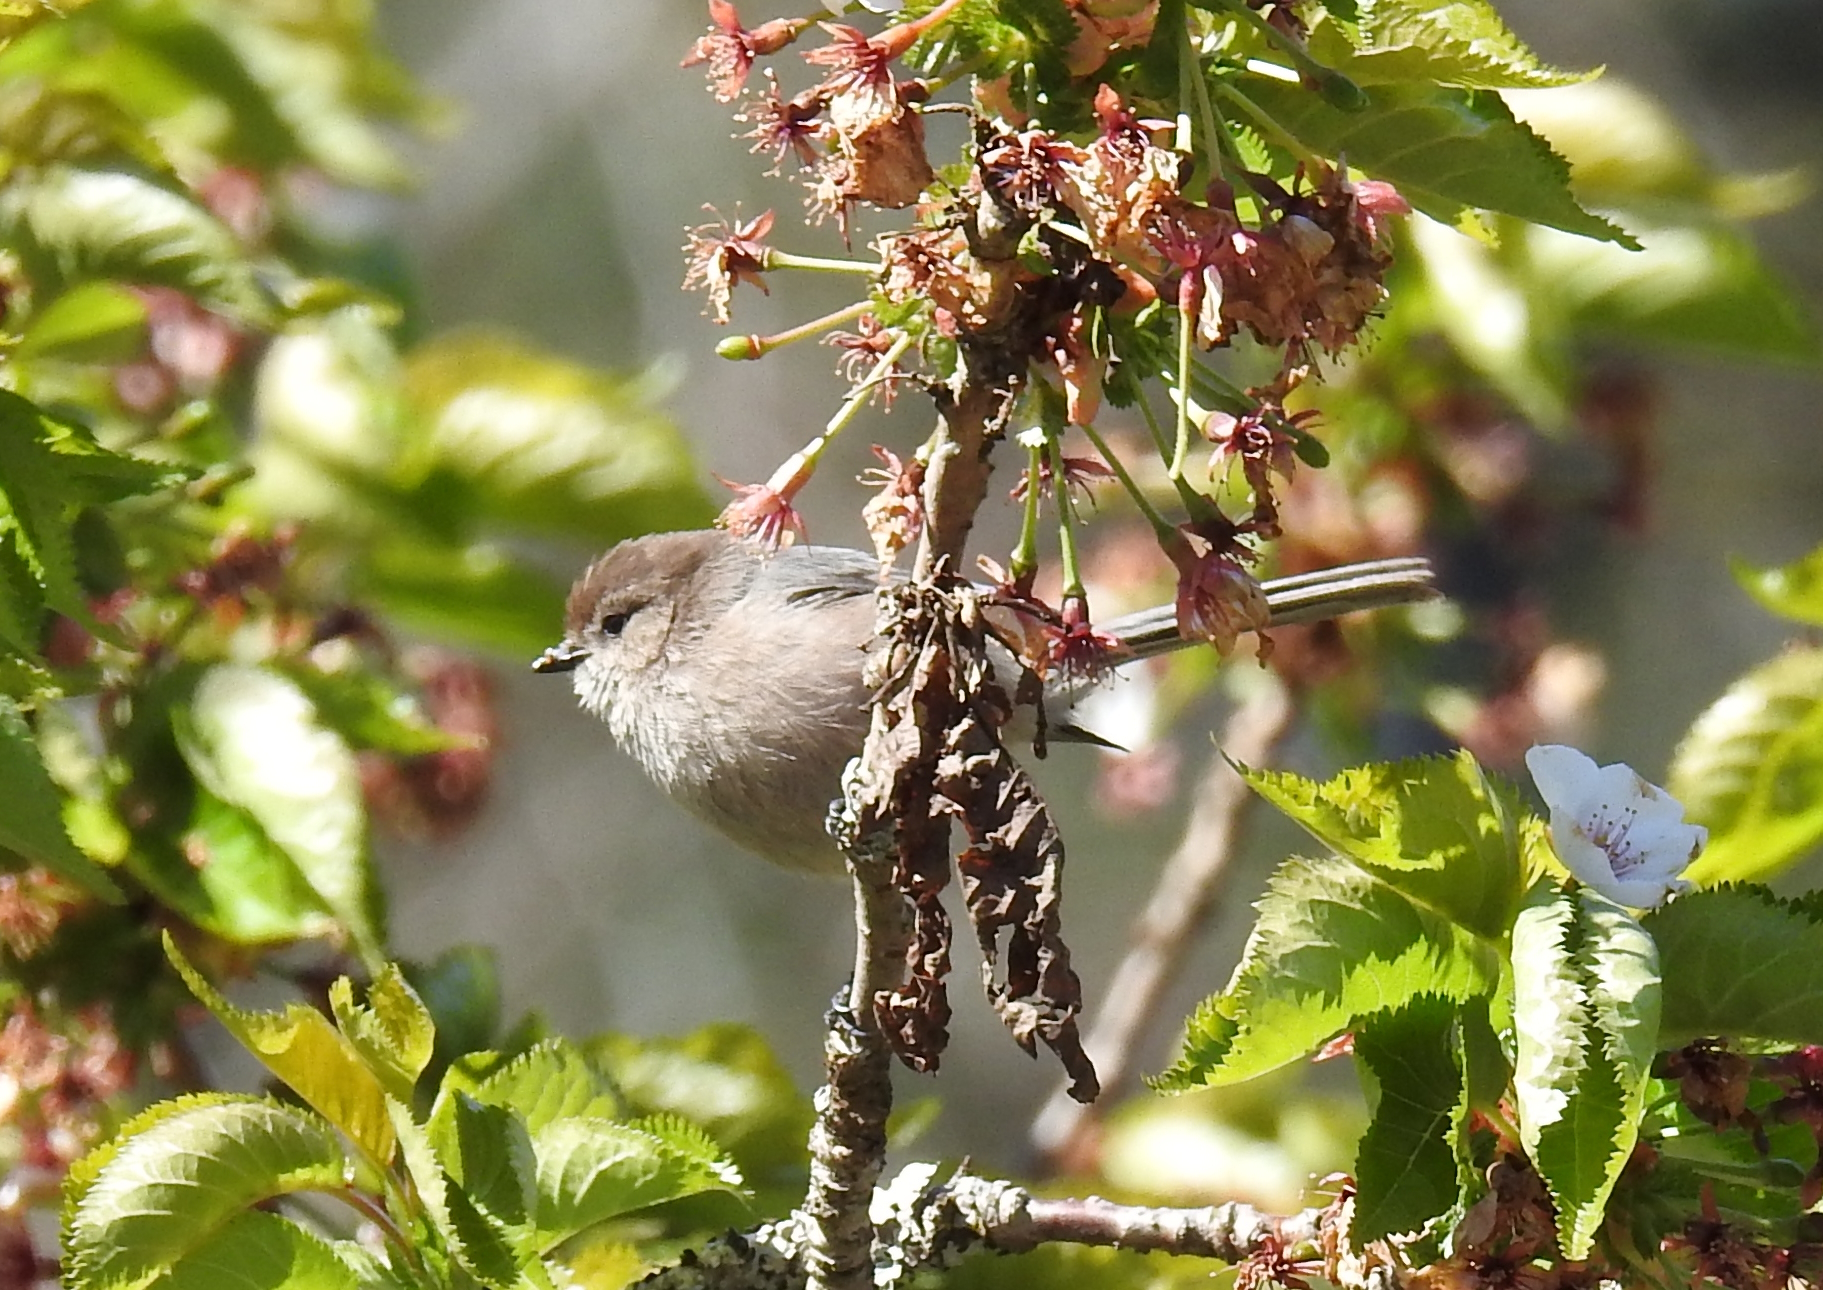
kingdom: Animalia
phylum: Chordata
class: Aves
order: Passeriformes
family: Aegithalidae
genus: Psaltriparus
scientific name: Psaltriparus minimus
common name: American bushtit
